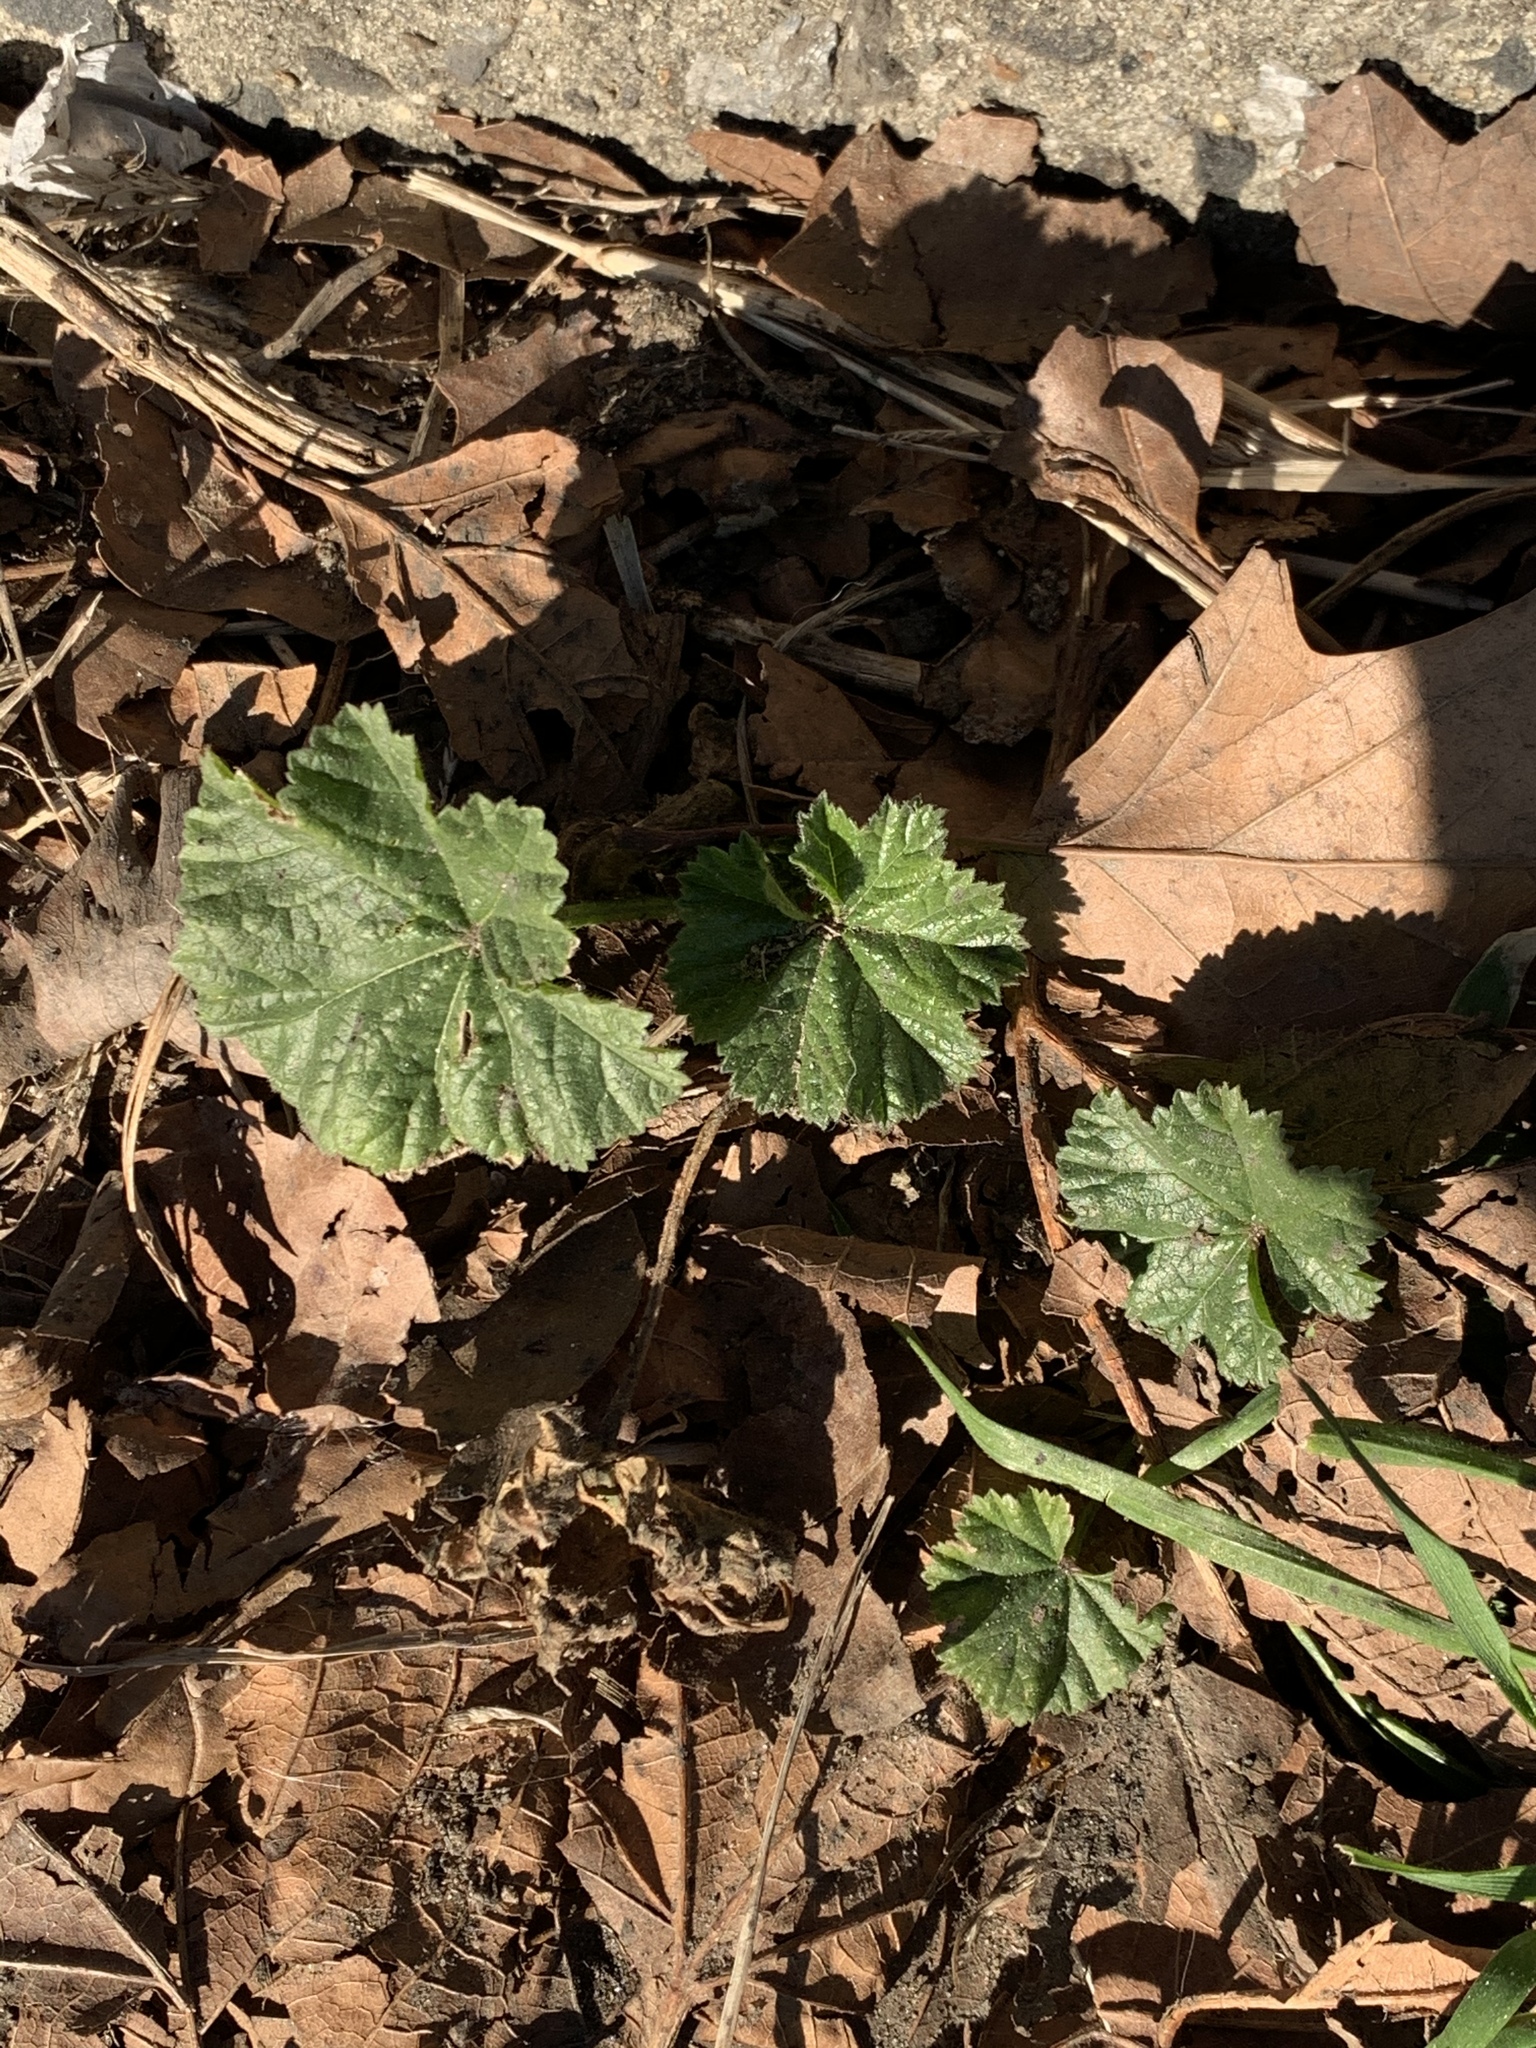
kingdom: Plantae
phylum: Tracheophyta
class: Magnoliopsida
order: Malvales
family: Malvaceae
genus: Malva
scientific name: Malva neglecta
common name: Common mallow
